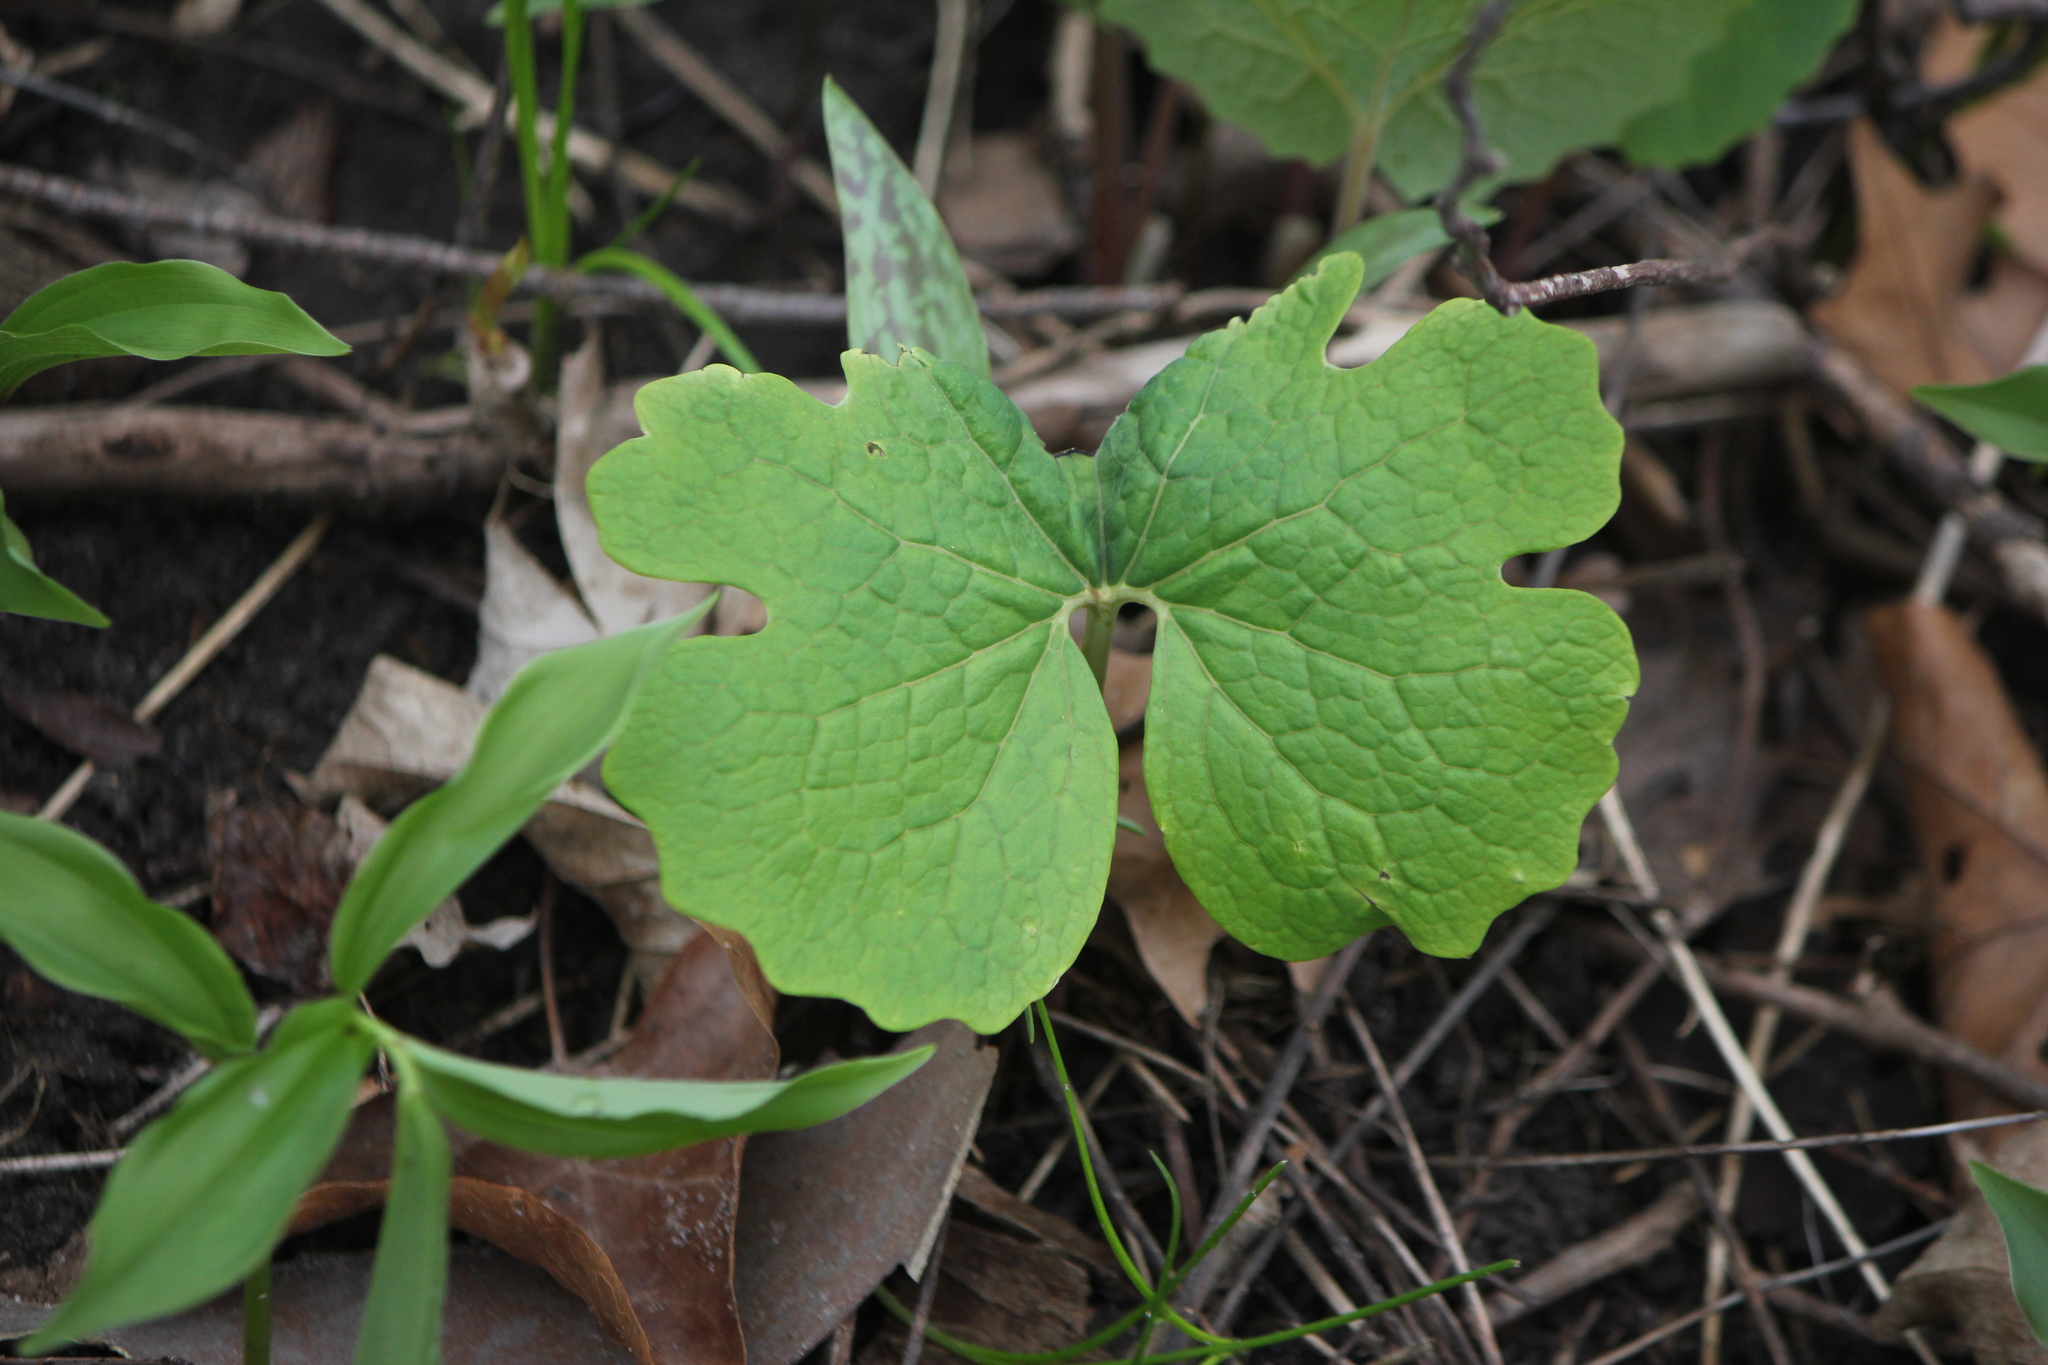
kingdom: Plantae
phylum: Tracheophyta
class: Magnoliopsida
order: Ranunculales
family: Papaveraceae
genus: Sanguinaria
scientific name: Sanguinaria canadensis
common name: Bloodroot
